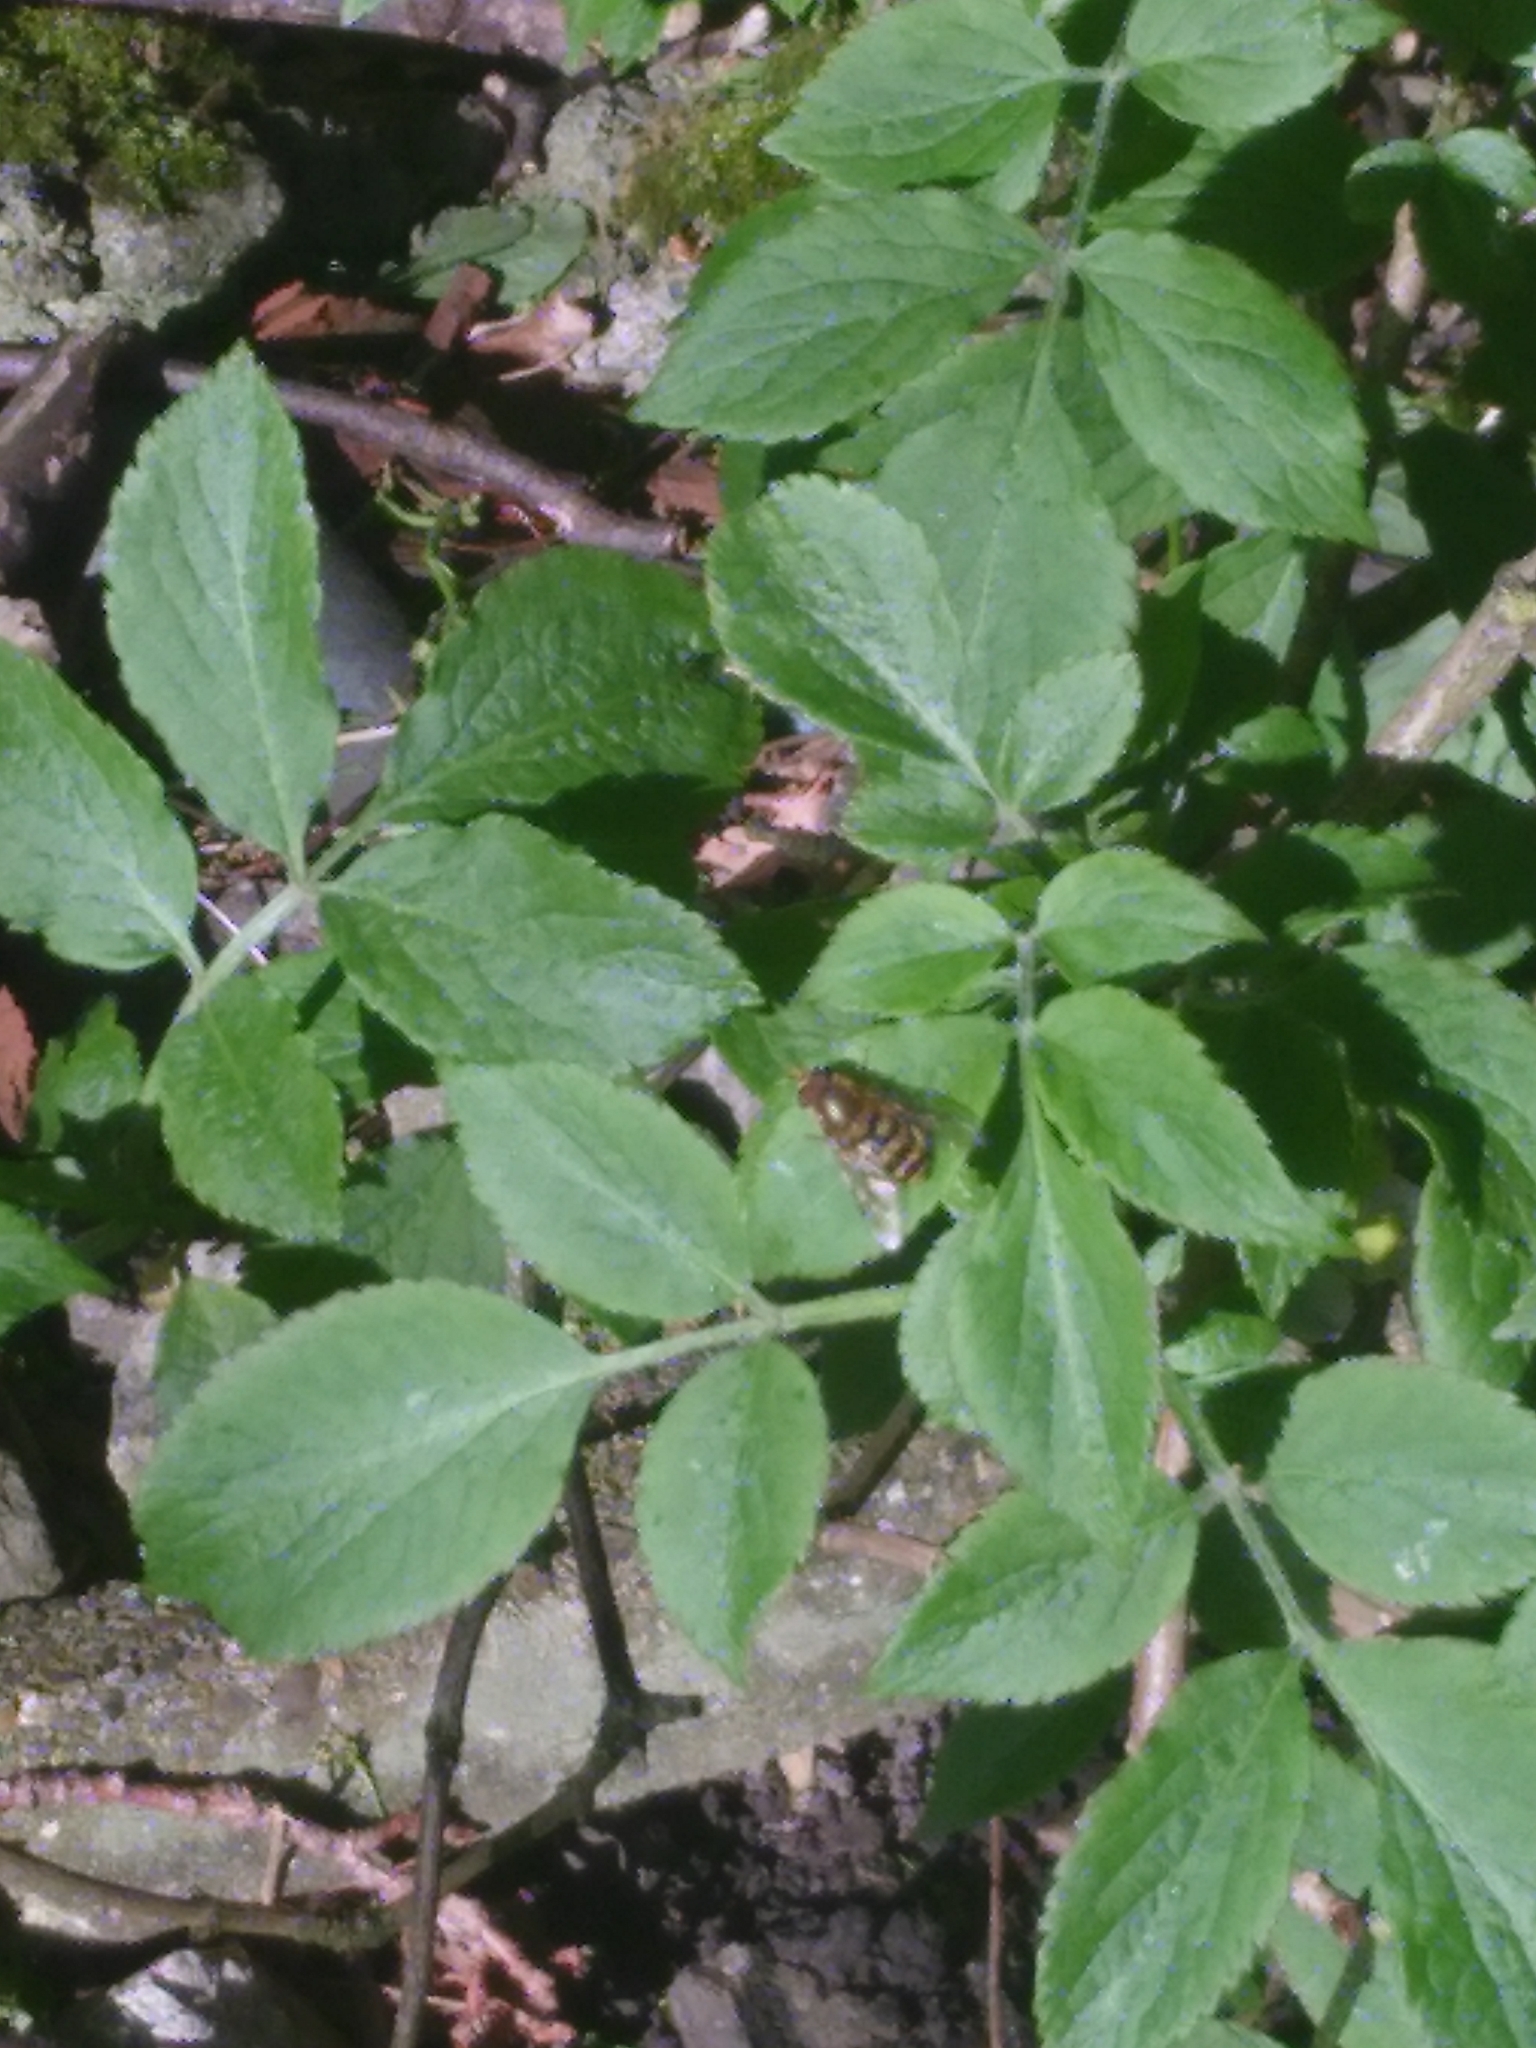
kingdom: Animalia
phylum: Arthropoda
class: Insecta
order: Diptera
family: Syrphidae
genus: Syrphus
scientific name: Syrphus
